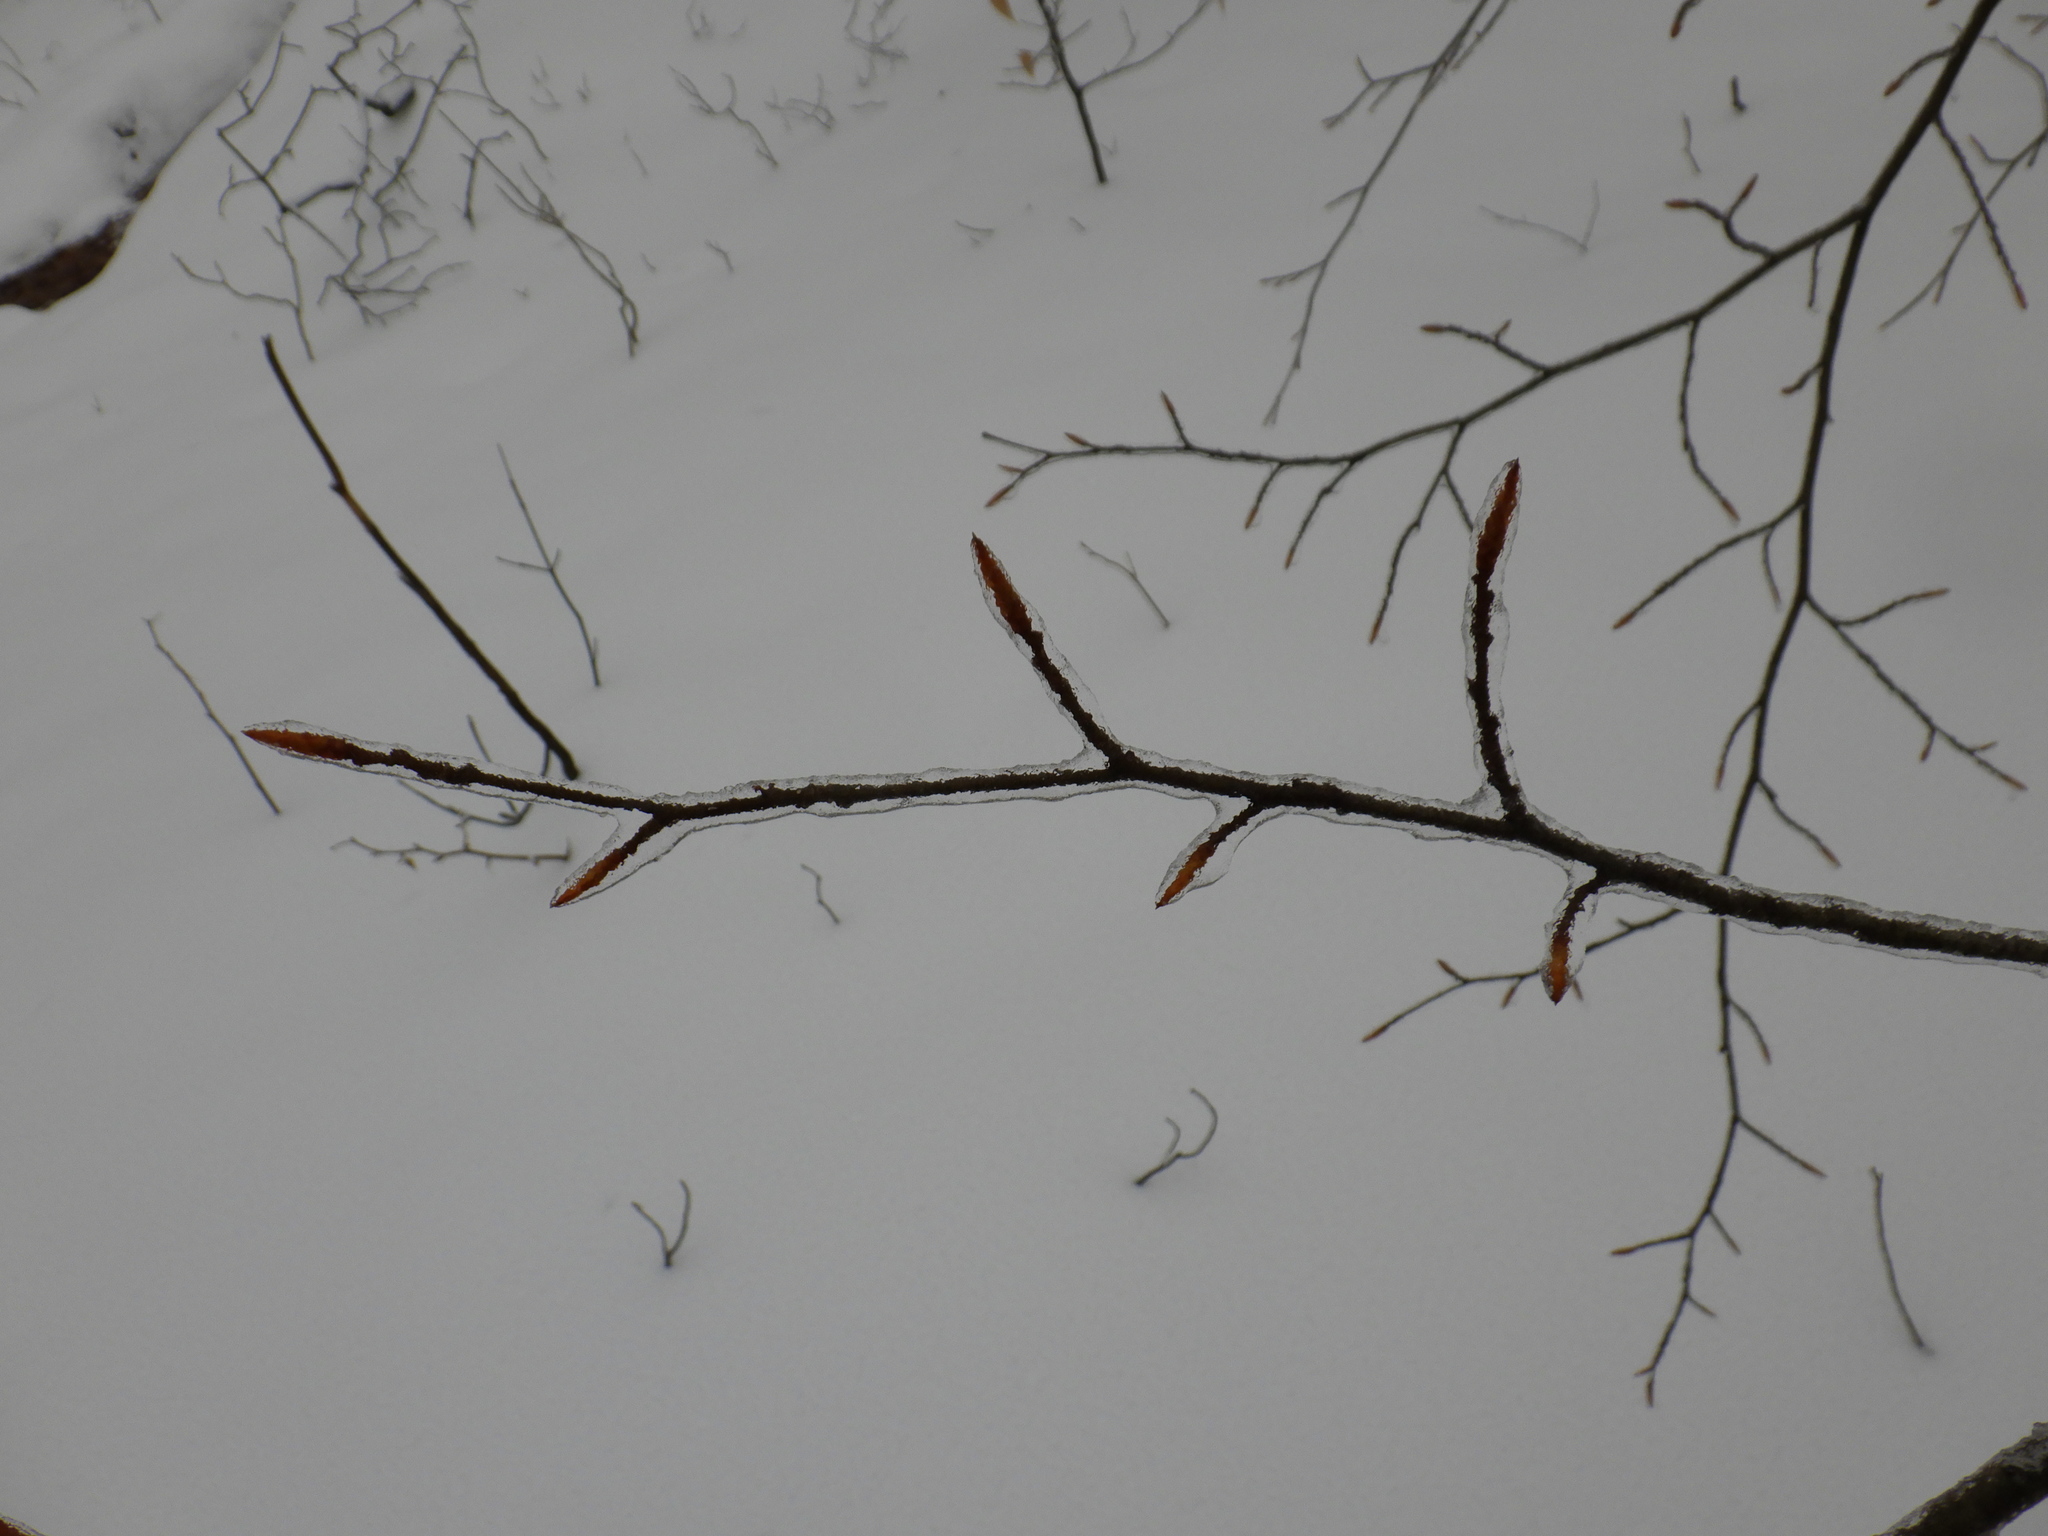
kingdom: Plantae
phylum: Tracheophyta
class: Magnoliopsida
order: Fagales
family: Fagaceae
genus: Fagus
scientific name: Fagus grandifolia
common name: American beech
